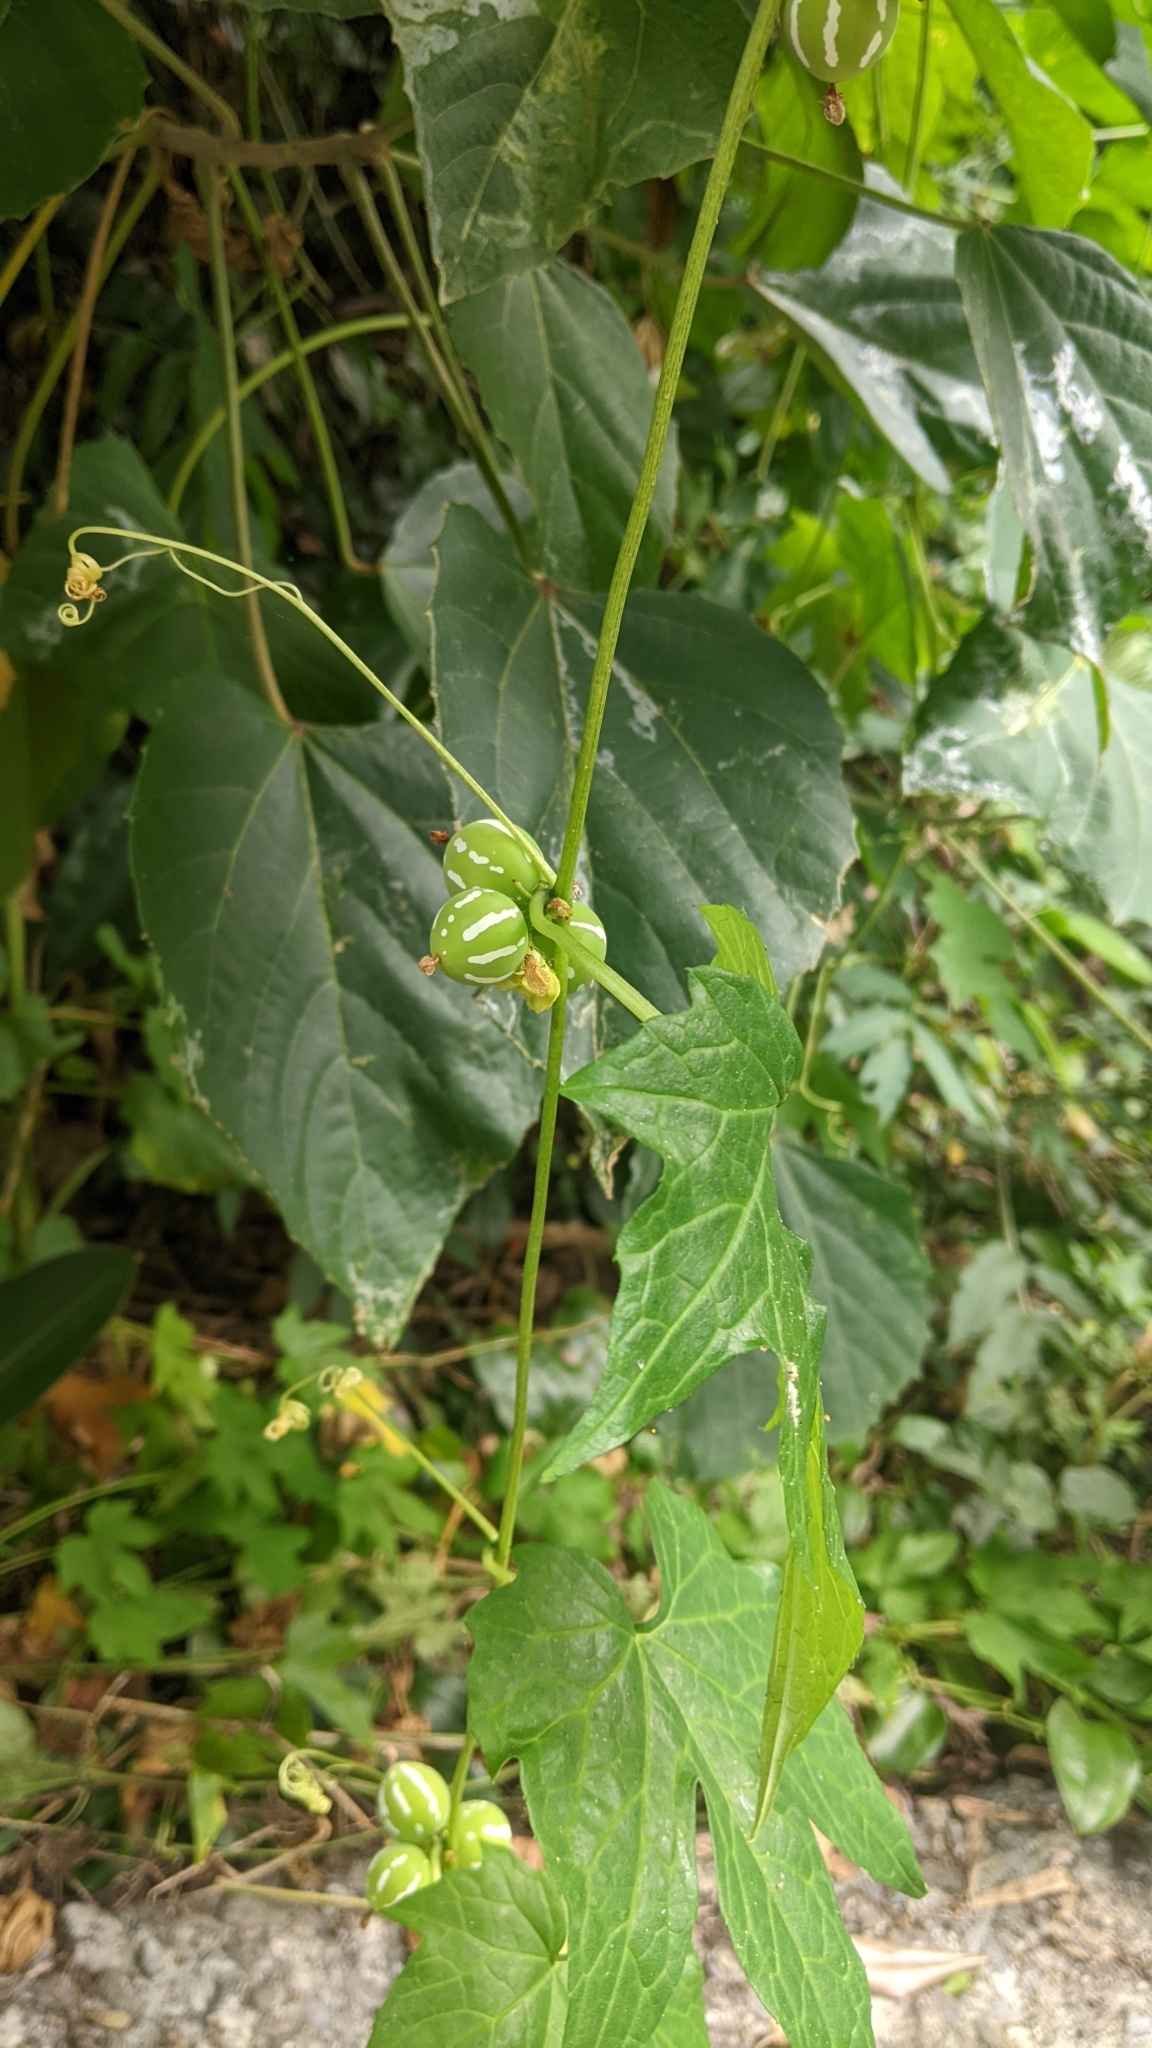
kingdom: Plantae
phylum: Tracheophyta
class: Magnoliopsida
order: Cucurbitales
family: Cucurbitaceae
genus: Diplocyclos
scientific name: Diplocyclos palmatus
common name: Striped-cucumber
